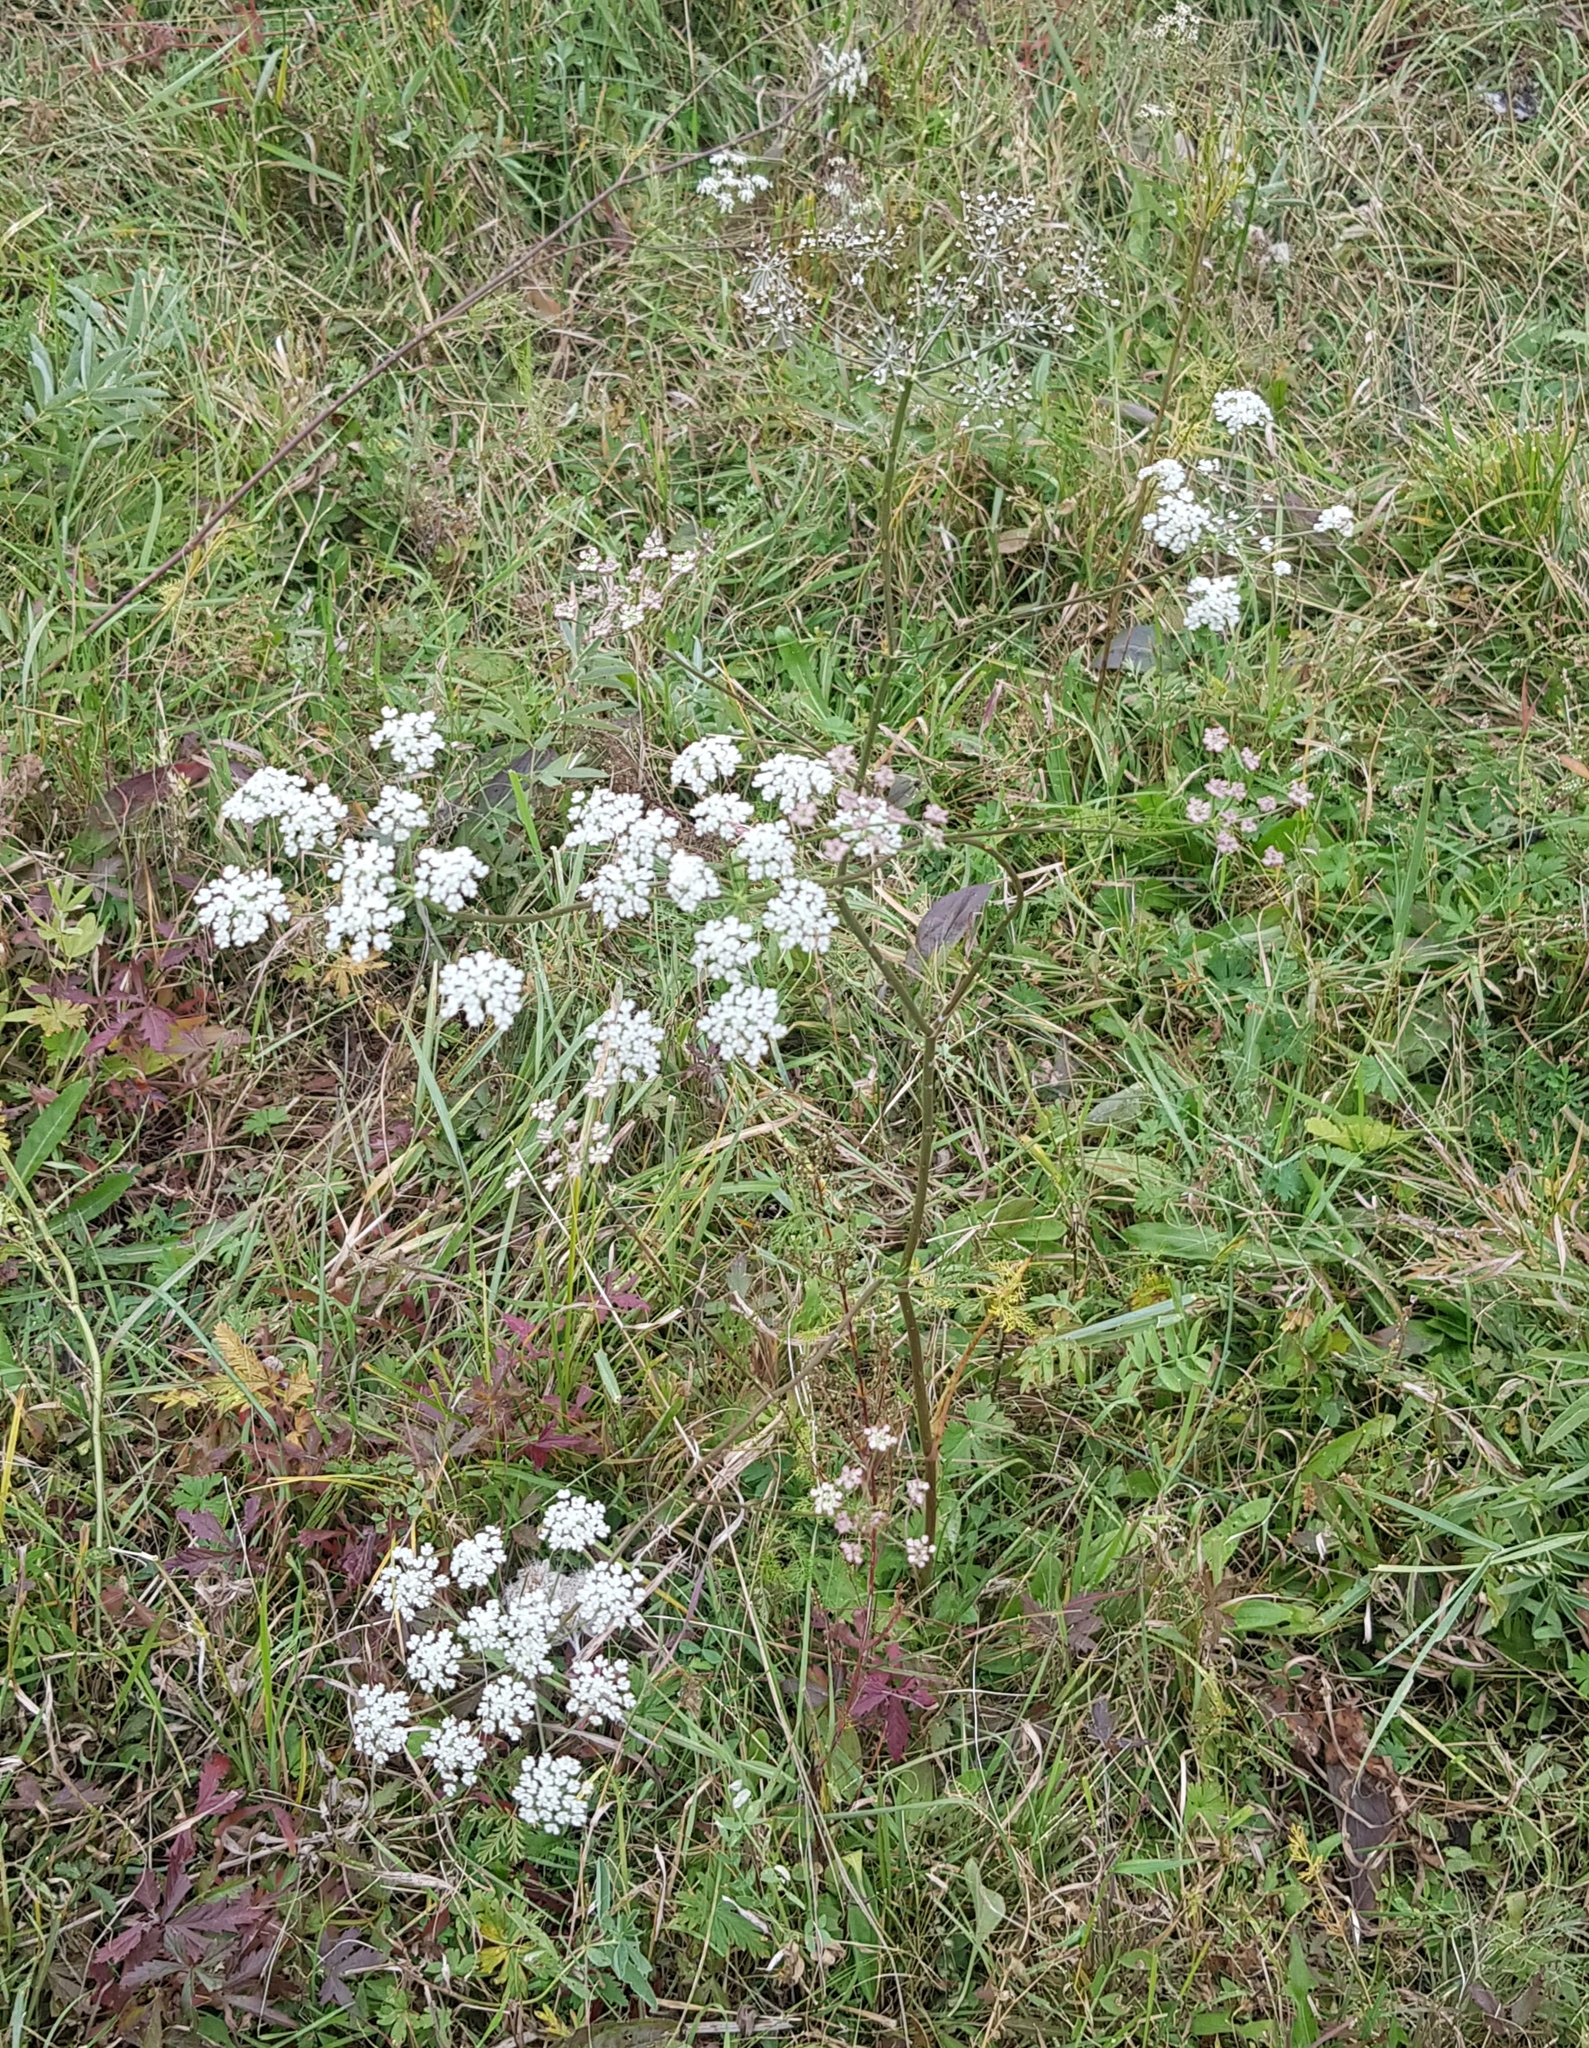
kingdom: Plantae
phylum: Tracheophyta
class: Magnoliopsida
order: Apiales
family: Apiaceae
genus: Carum
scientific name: Carum buriaticum
